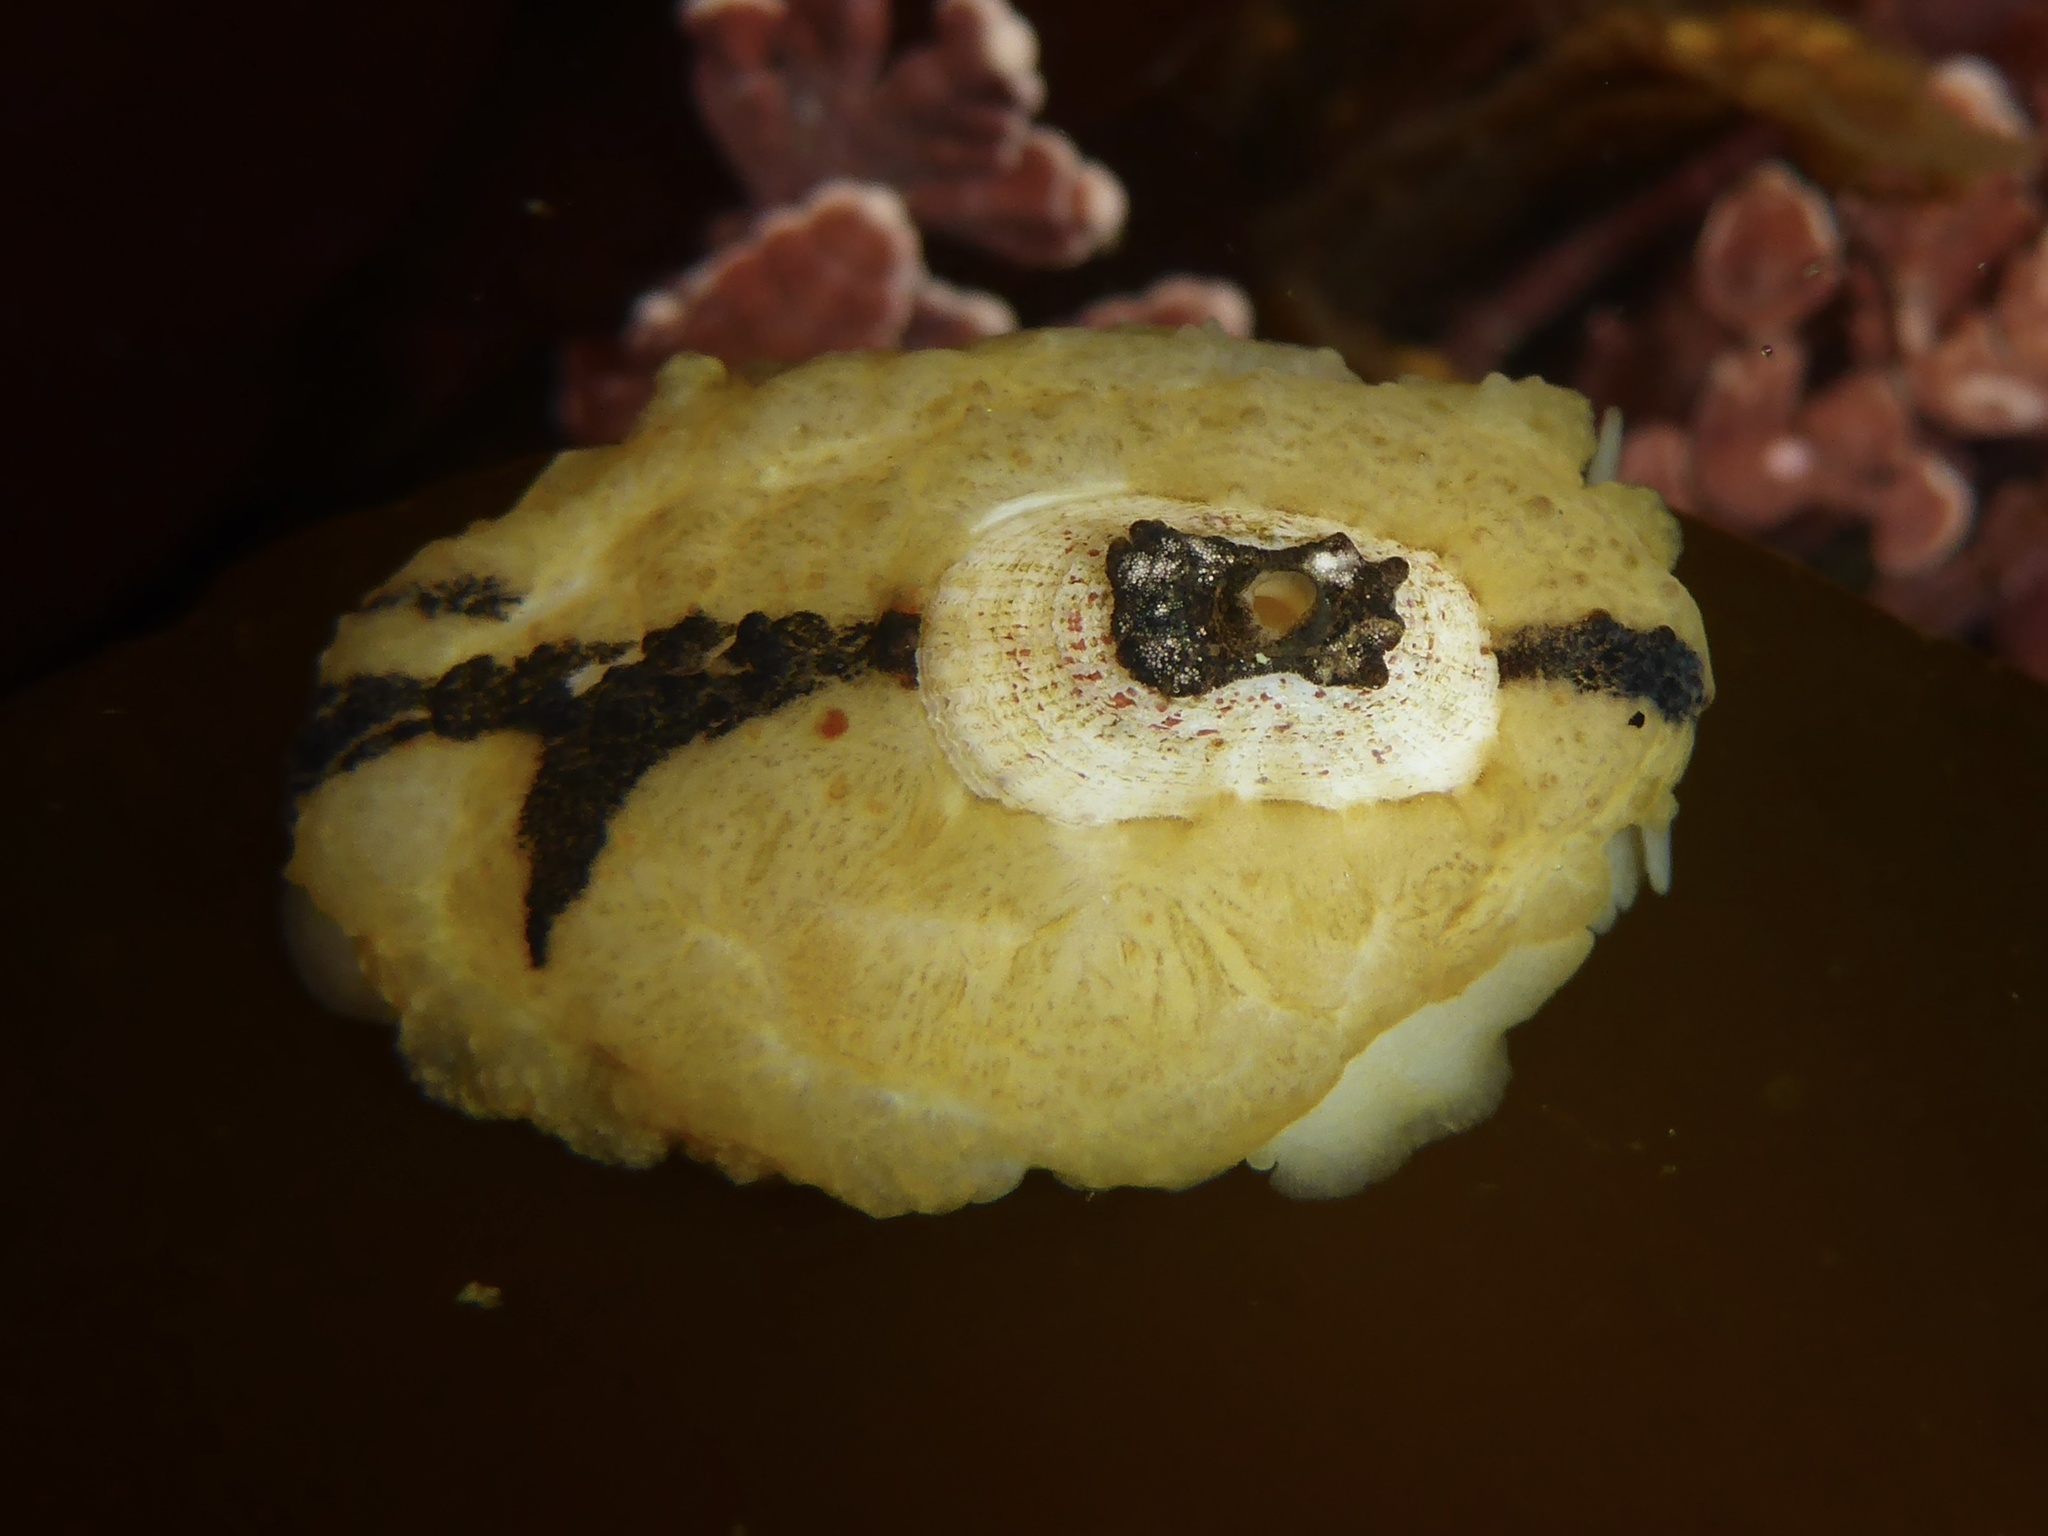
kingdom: Animalia
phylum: Mollusca
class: Gastropoda
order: Lepetellida
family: Fissurellidae
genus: Fissurellidea
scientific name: Fissurellidea bimaculata
